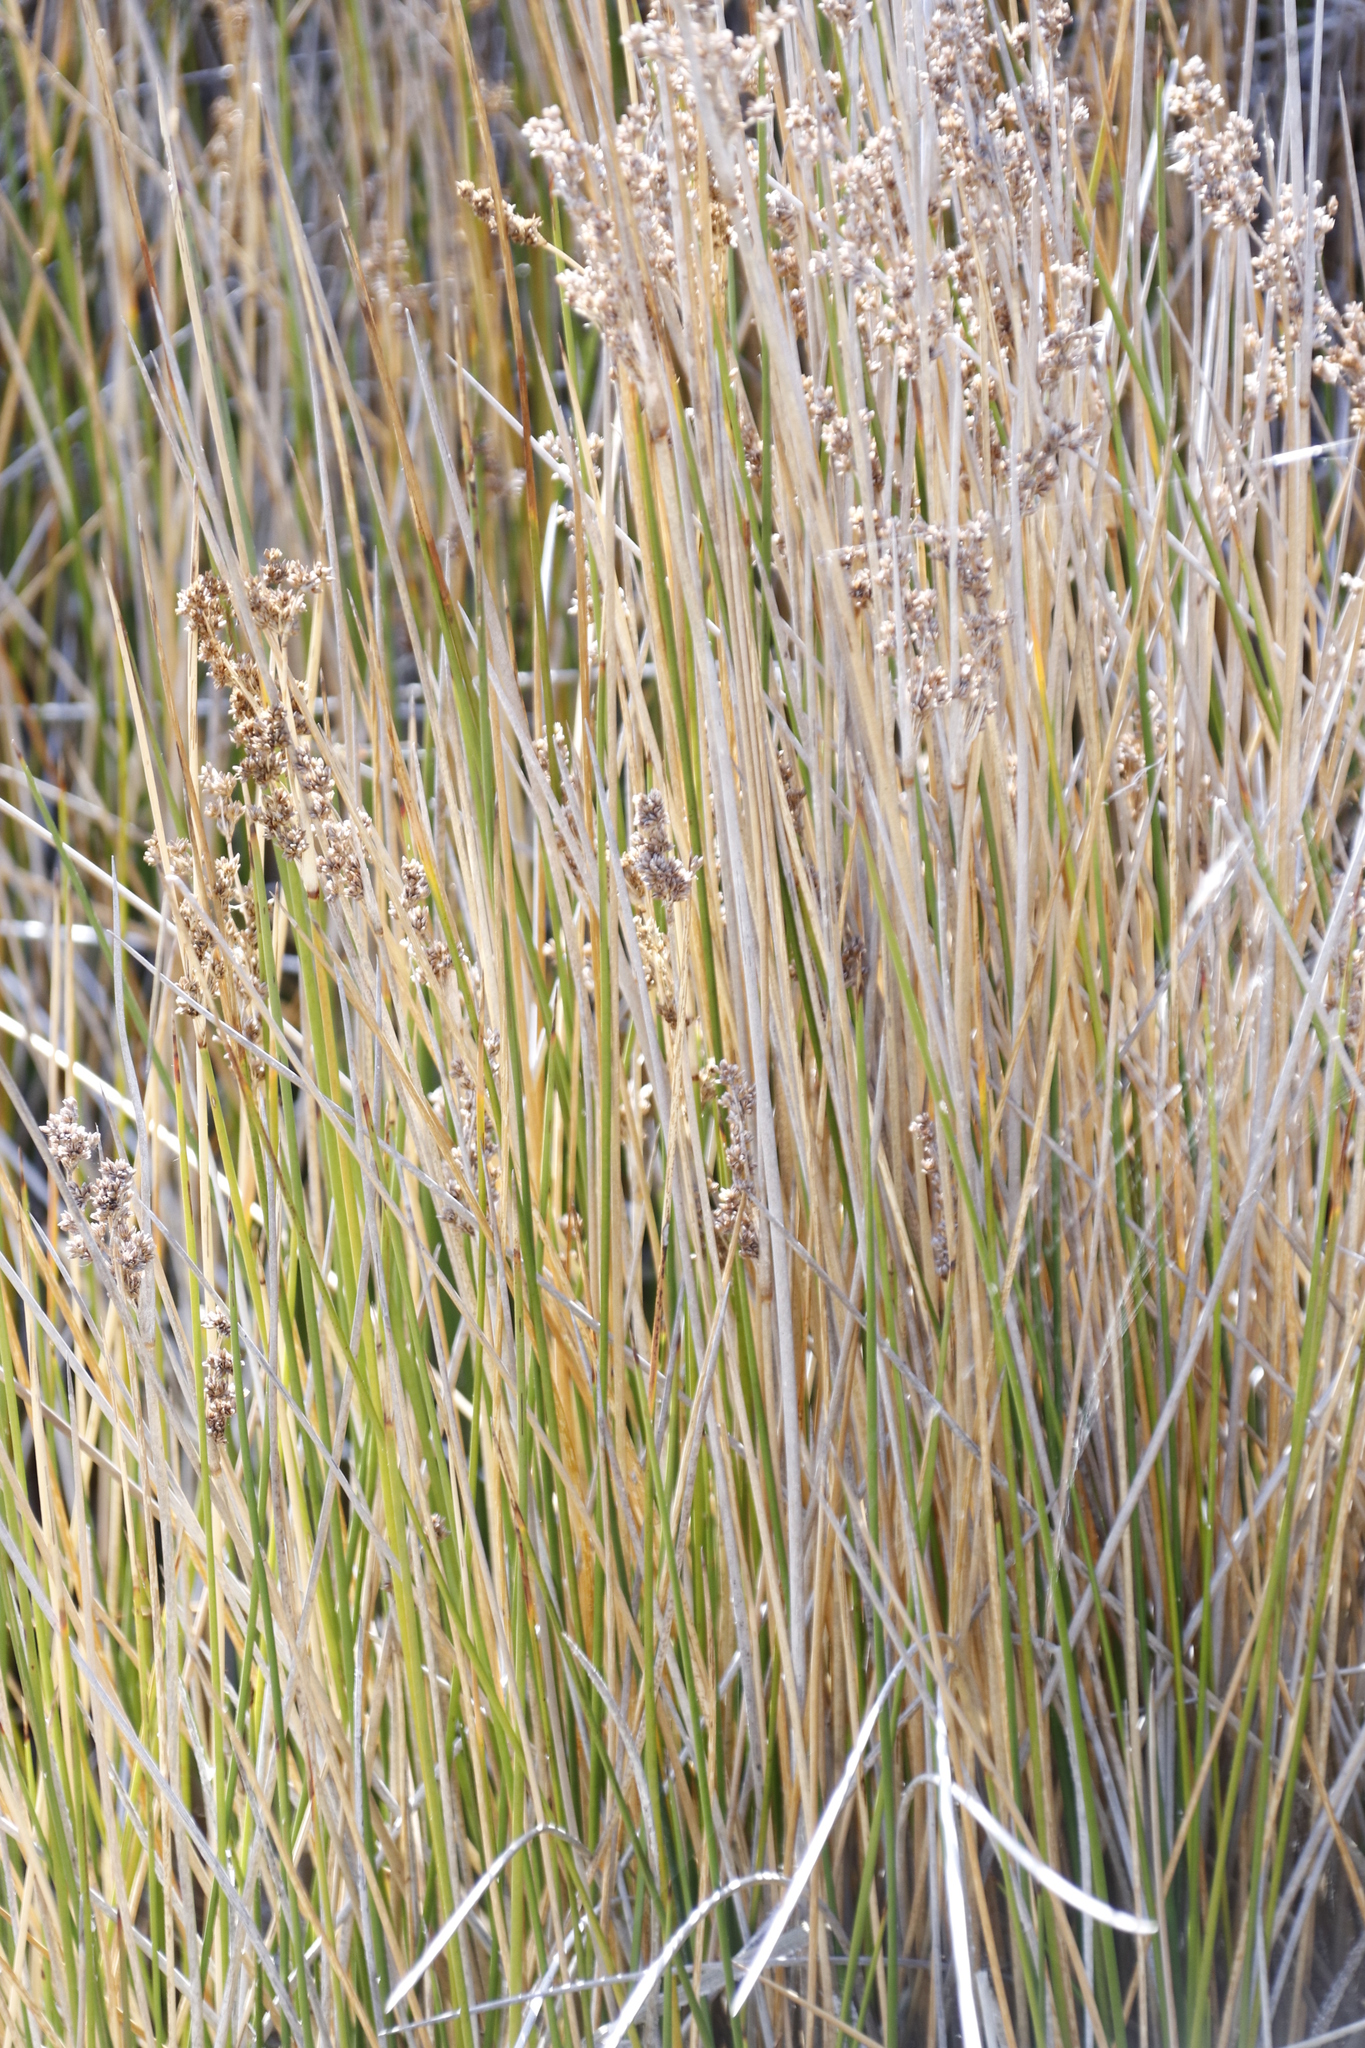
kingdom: Plantae
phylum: Tracheophyta
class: Liliopsida
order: Poales
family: Juncaceae
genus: Juncus
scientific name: Juncus kraussii
